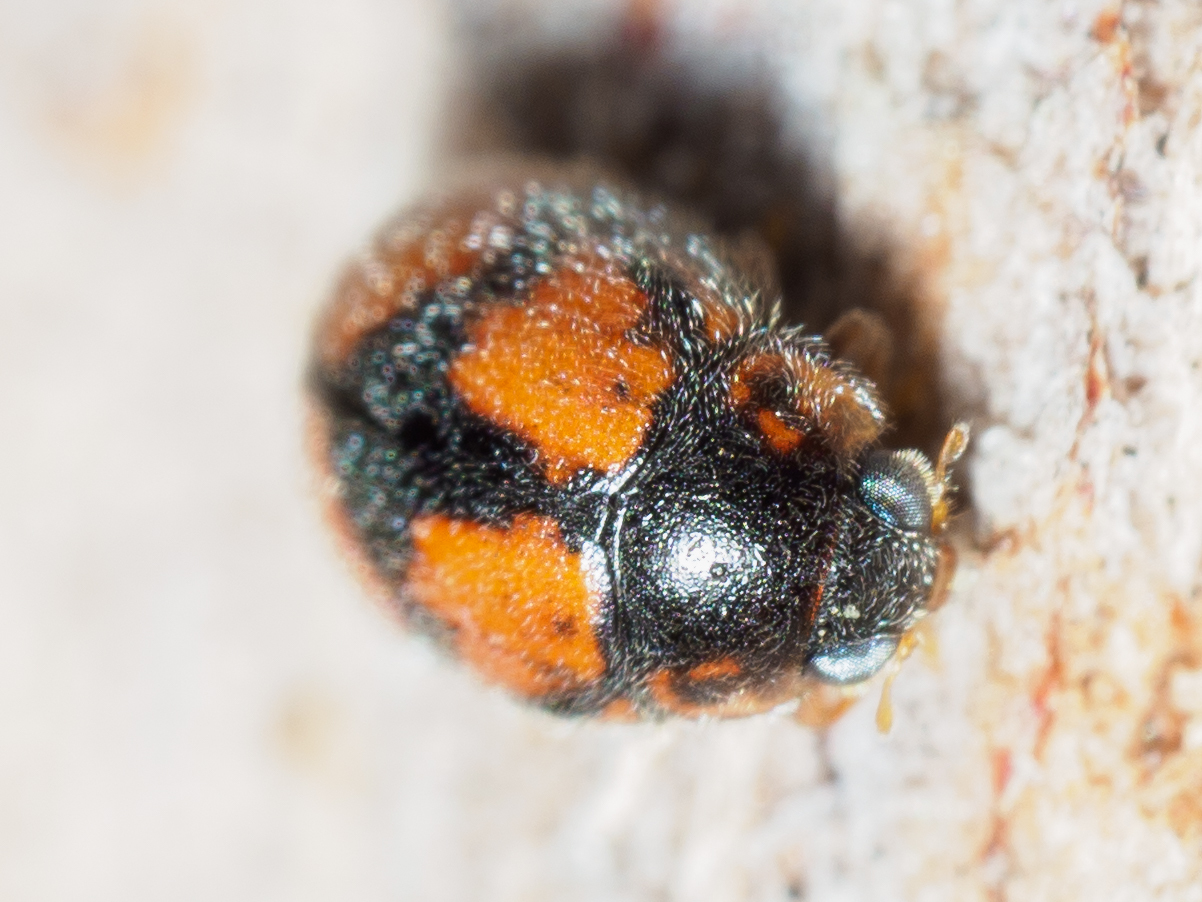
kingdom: Animalia
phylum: Arthropoda
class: Insecta
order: Coleoptera
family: Coccinellidae
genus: Diomus
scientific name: Diomus
